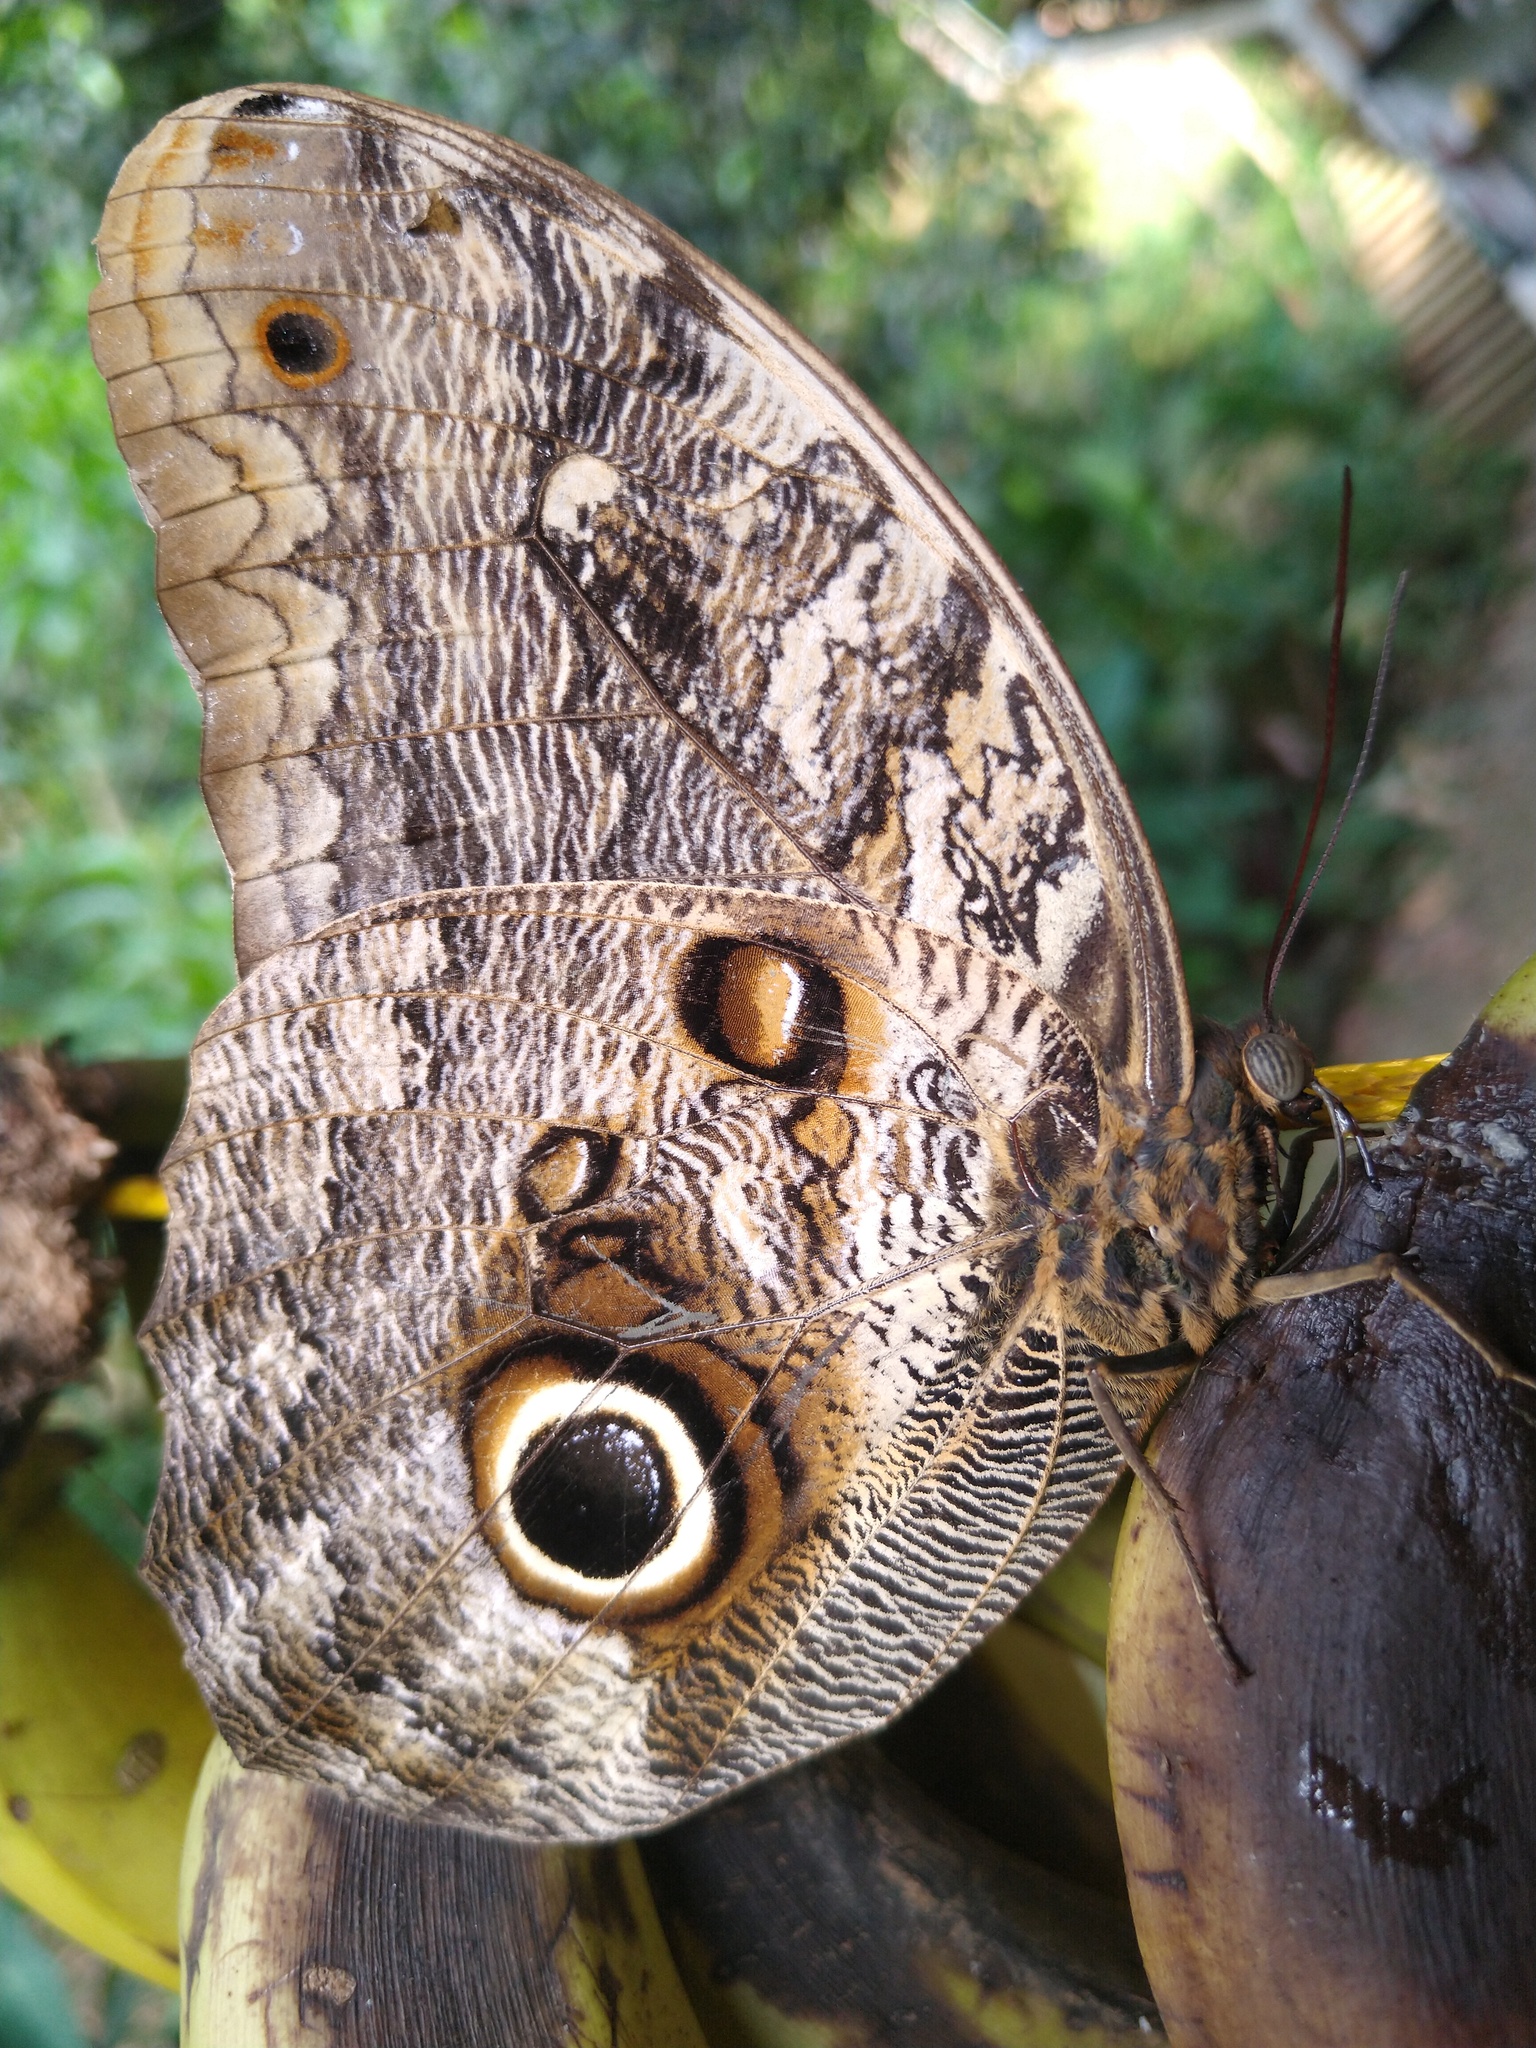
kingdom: Animalia
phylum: Arthropoda
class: Insecta
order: Lepidoptera
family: Nymphalidae
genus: Caligo
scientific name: Caligo brasiliensis
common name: Dark owl-butterfly
